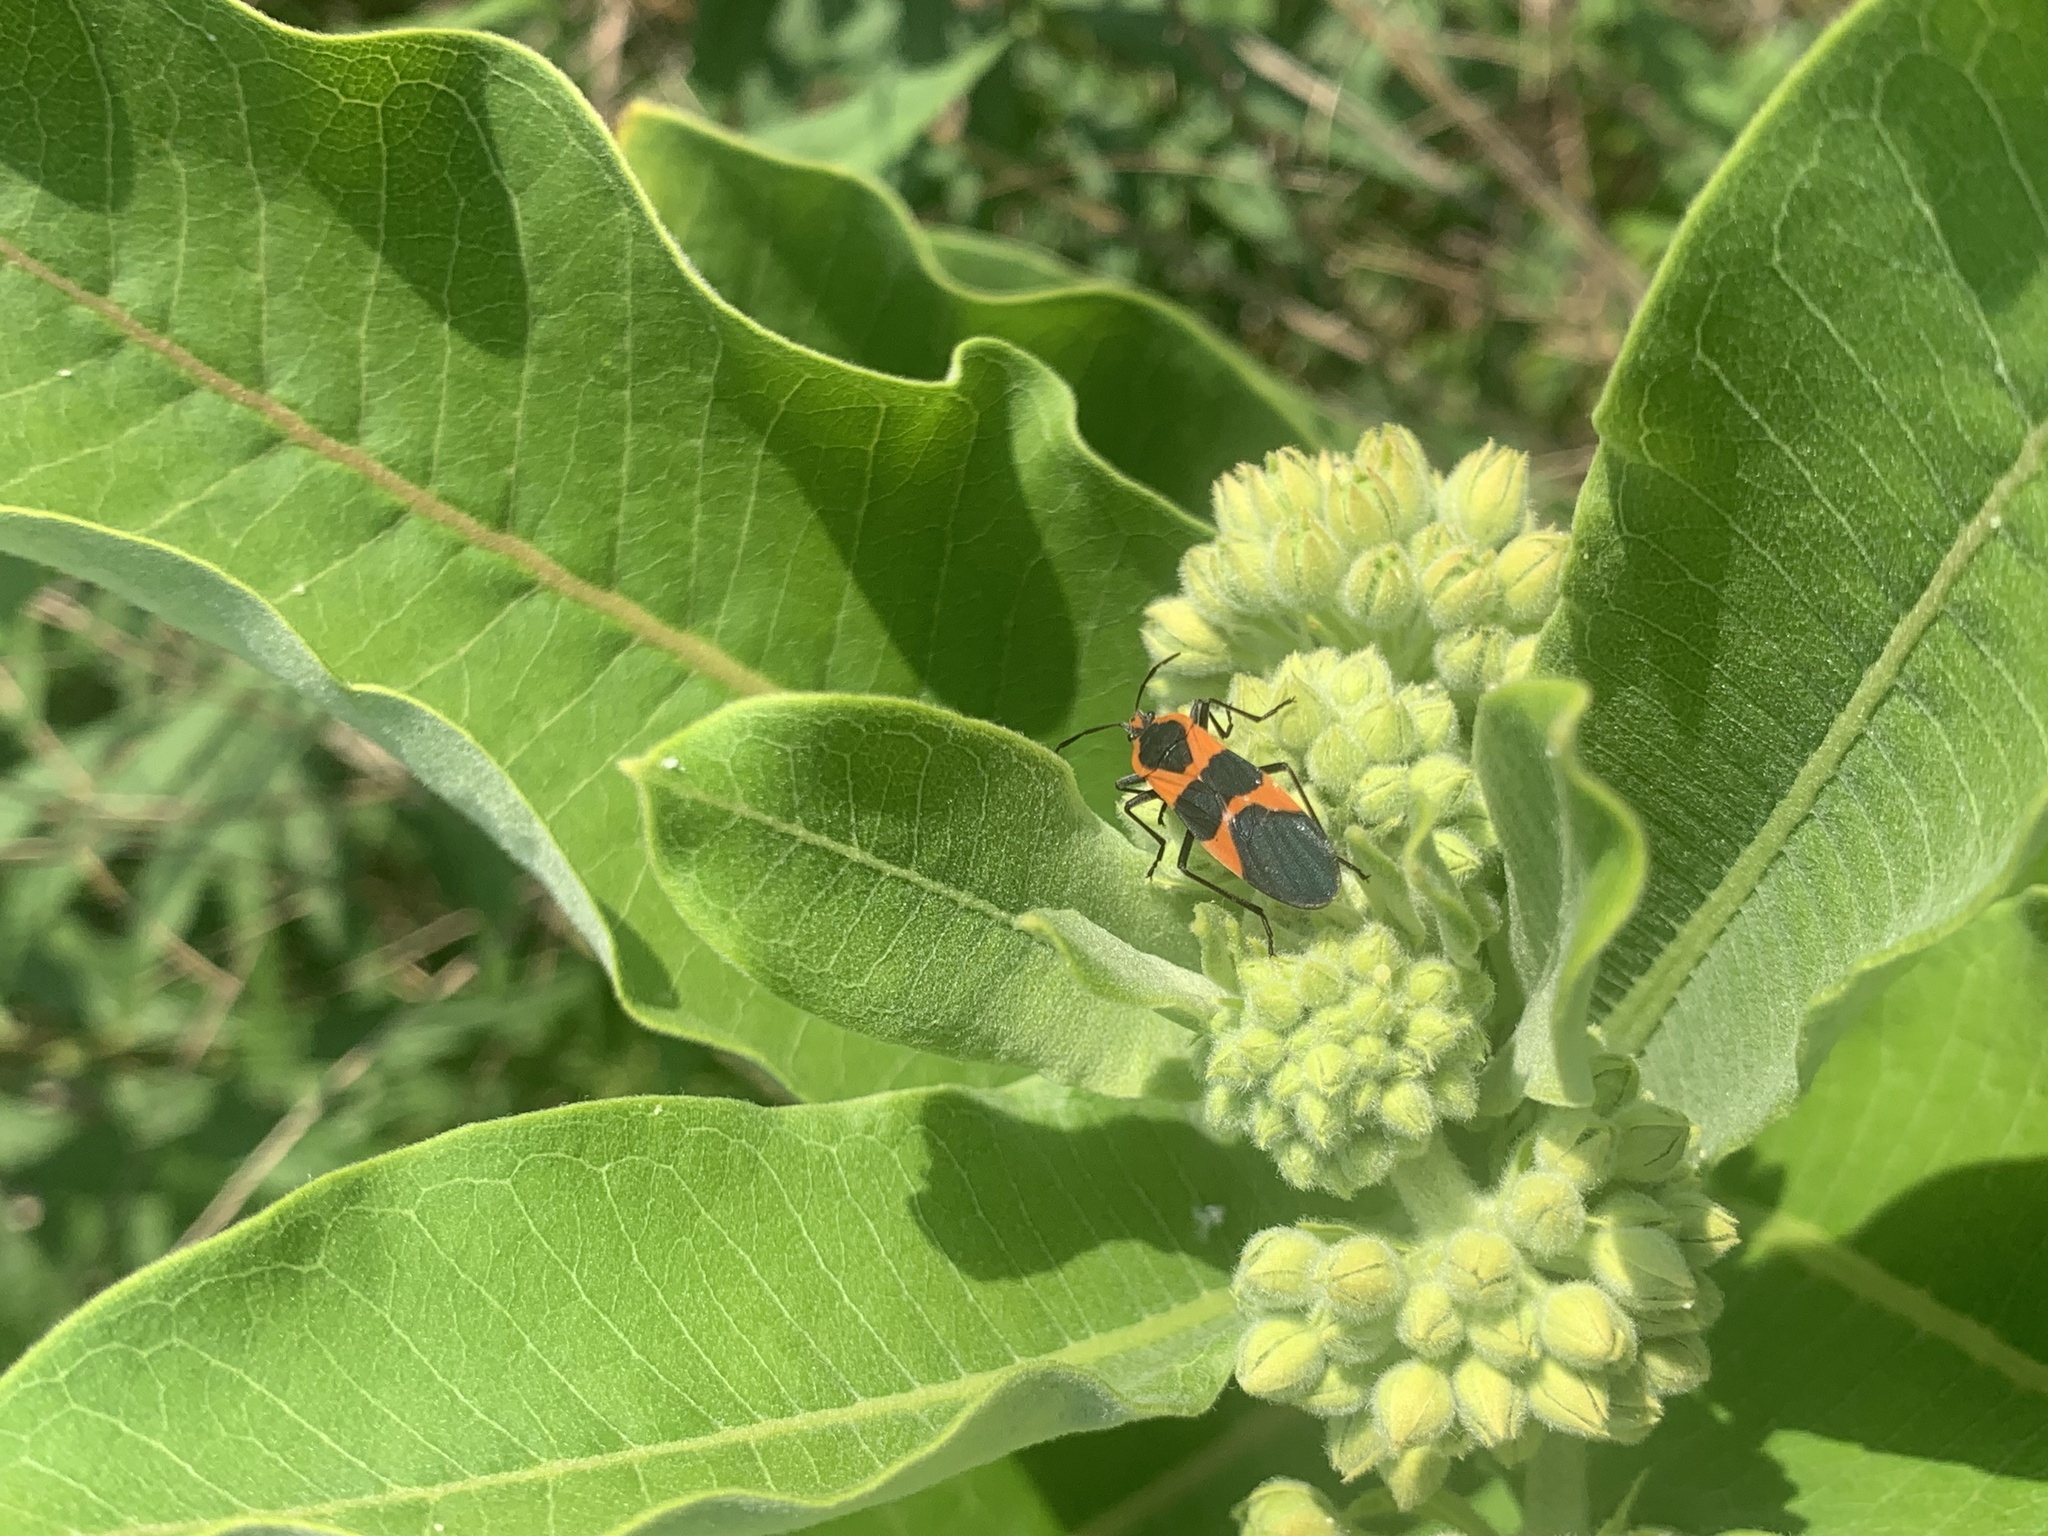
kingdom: Animalia
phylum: Arthropoda
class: Insecta
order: Hemiptera
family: Lygaeidae
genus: Oncopeltus
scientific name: Oncopeltus fasciatus
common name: Large milkweed bug
